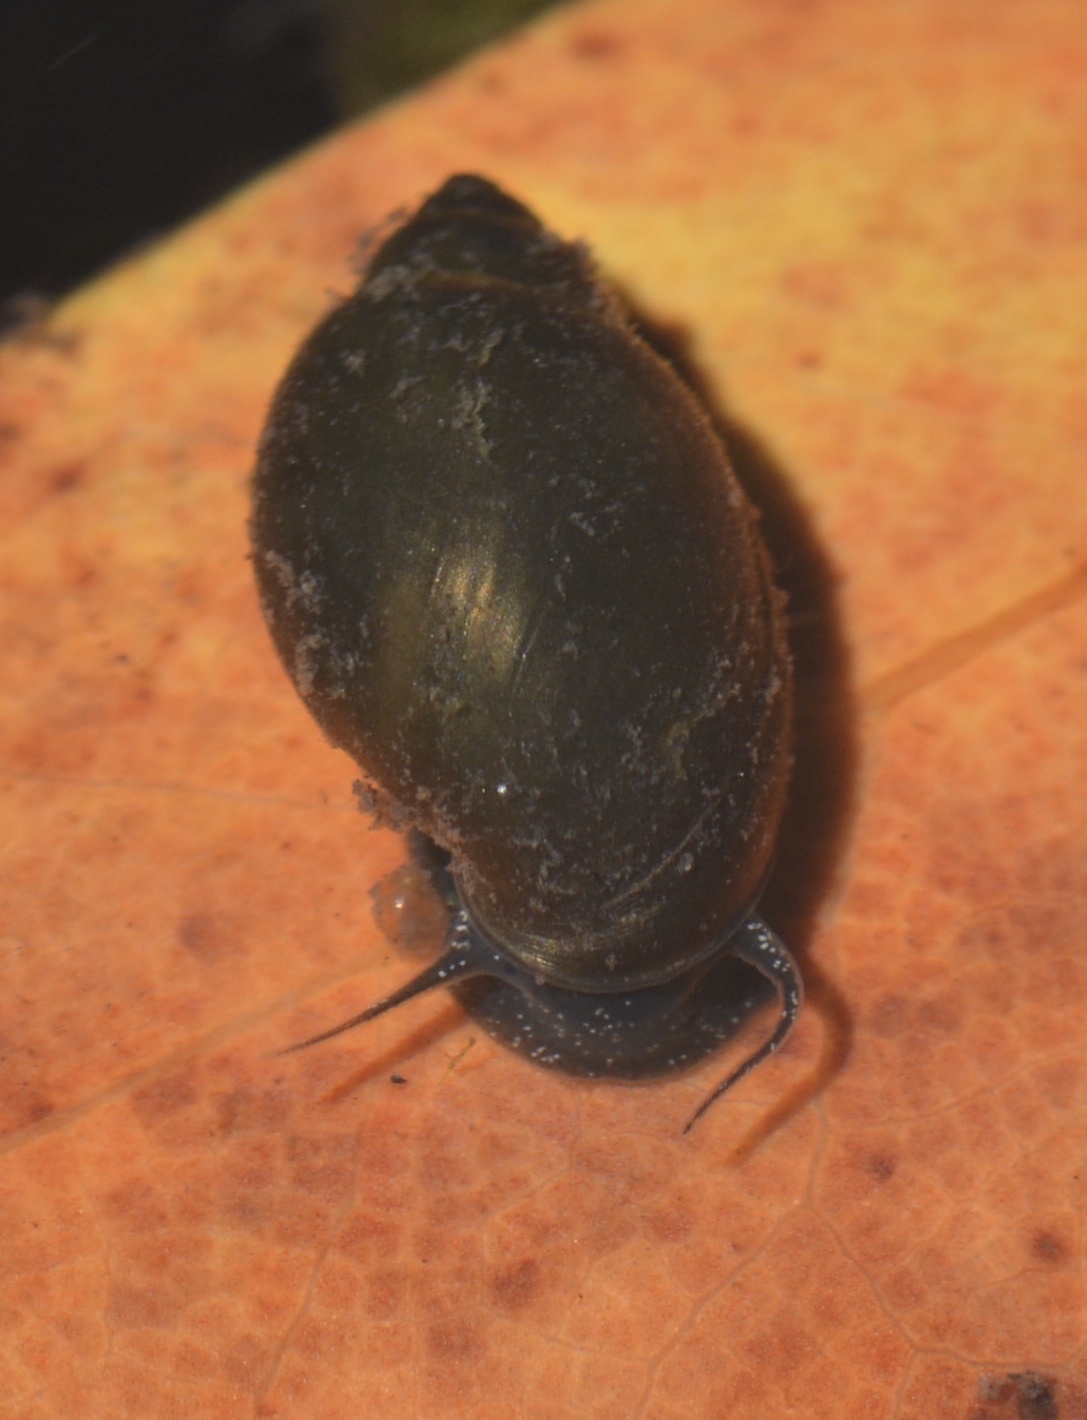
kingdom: Animalia
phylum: Mollusca
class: Gastropoda
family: Physidae
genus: Physella
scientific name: Physella acuta
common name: European physa
